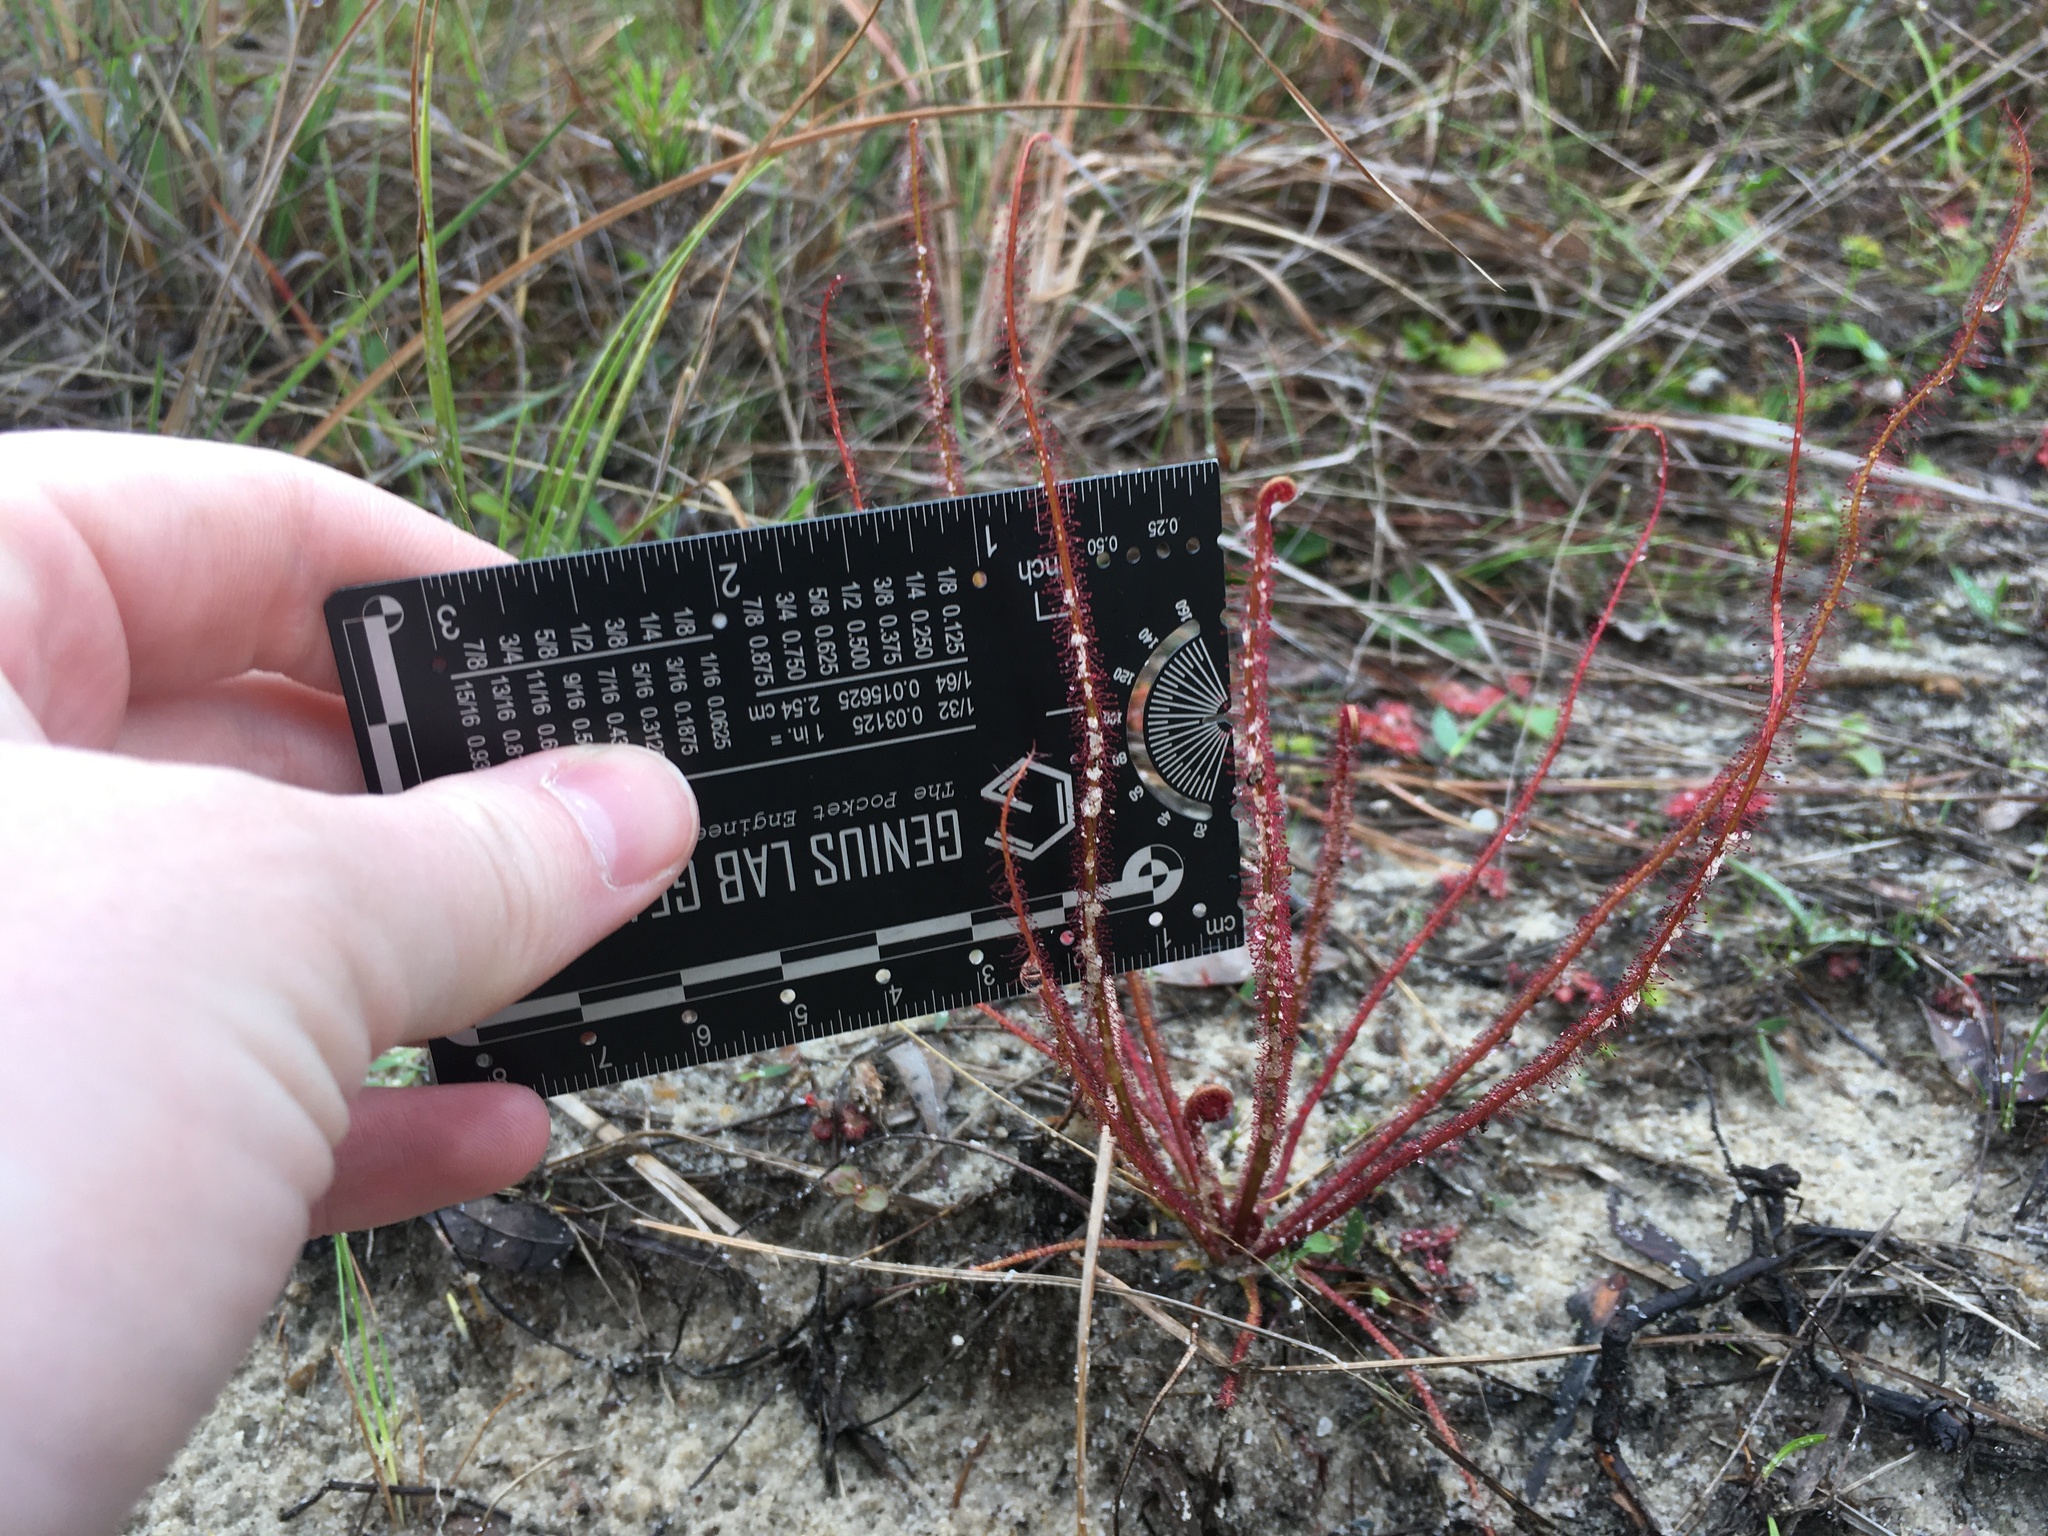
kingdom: Plantae
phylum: Tracheophyta
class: Magnoliopsida
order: Caryophyllales
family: Droseraceae
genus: Drosera
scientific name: Drosera filiformis
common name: Dew-thread
